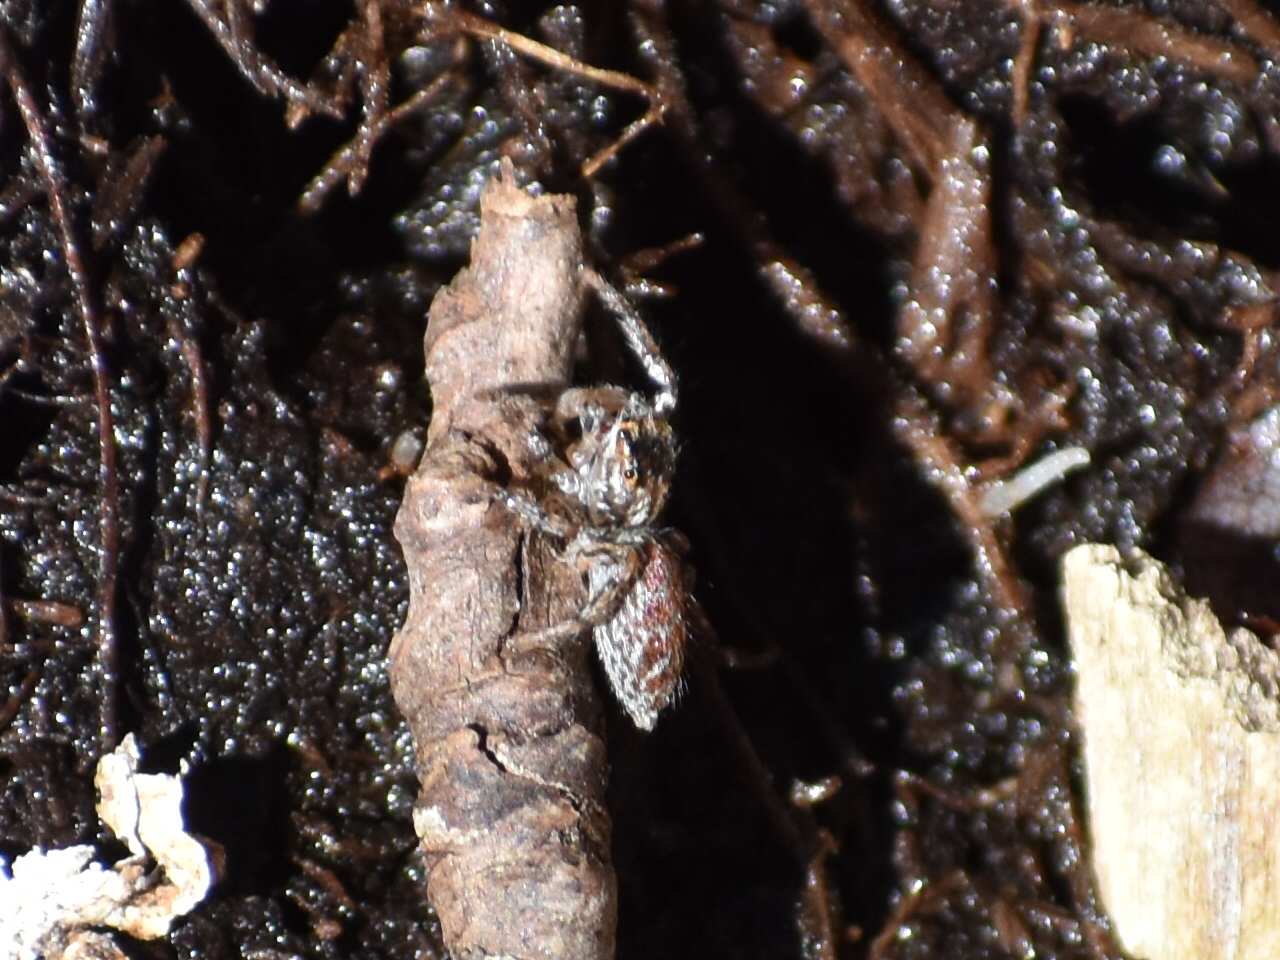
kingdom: Animalia
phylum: Arthropoda
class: Arachnida
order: Araneae
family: Salticidae
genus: Maevia
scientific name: Maevia inclemens
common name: Dimorphic jumper
